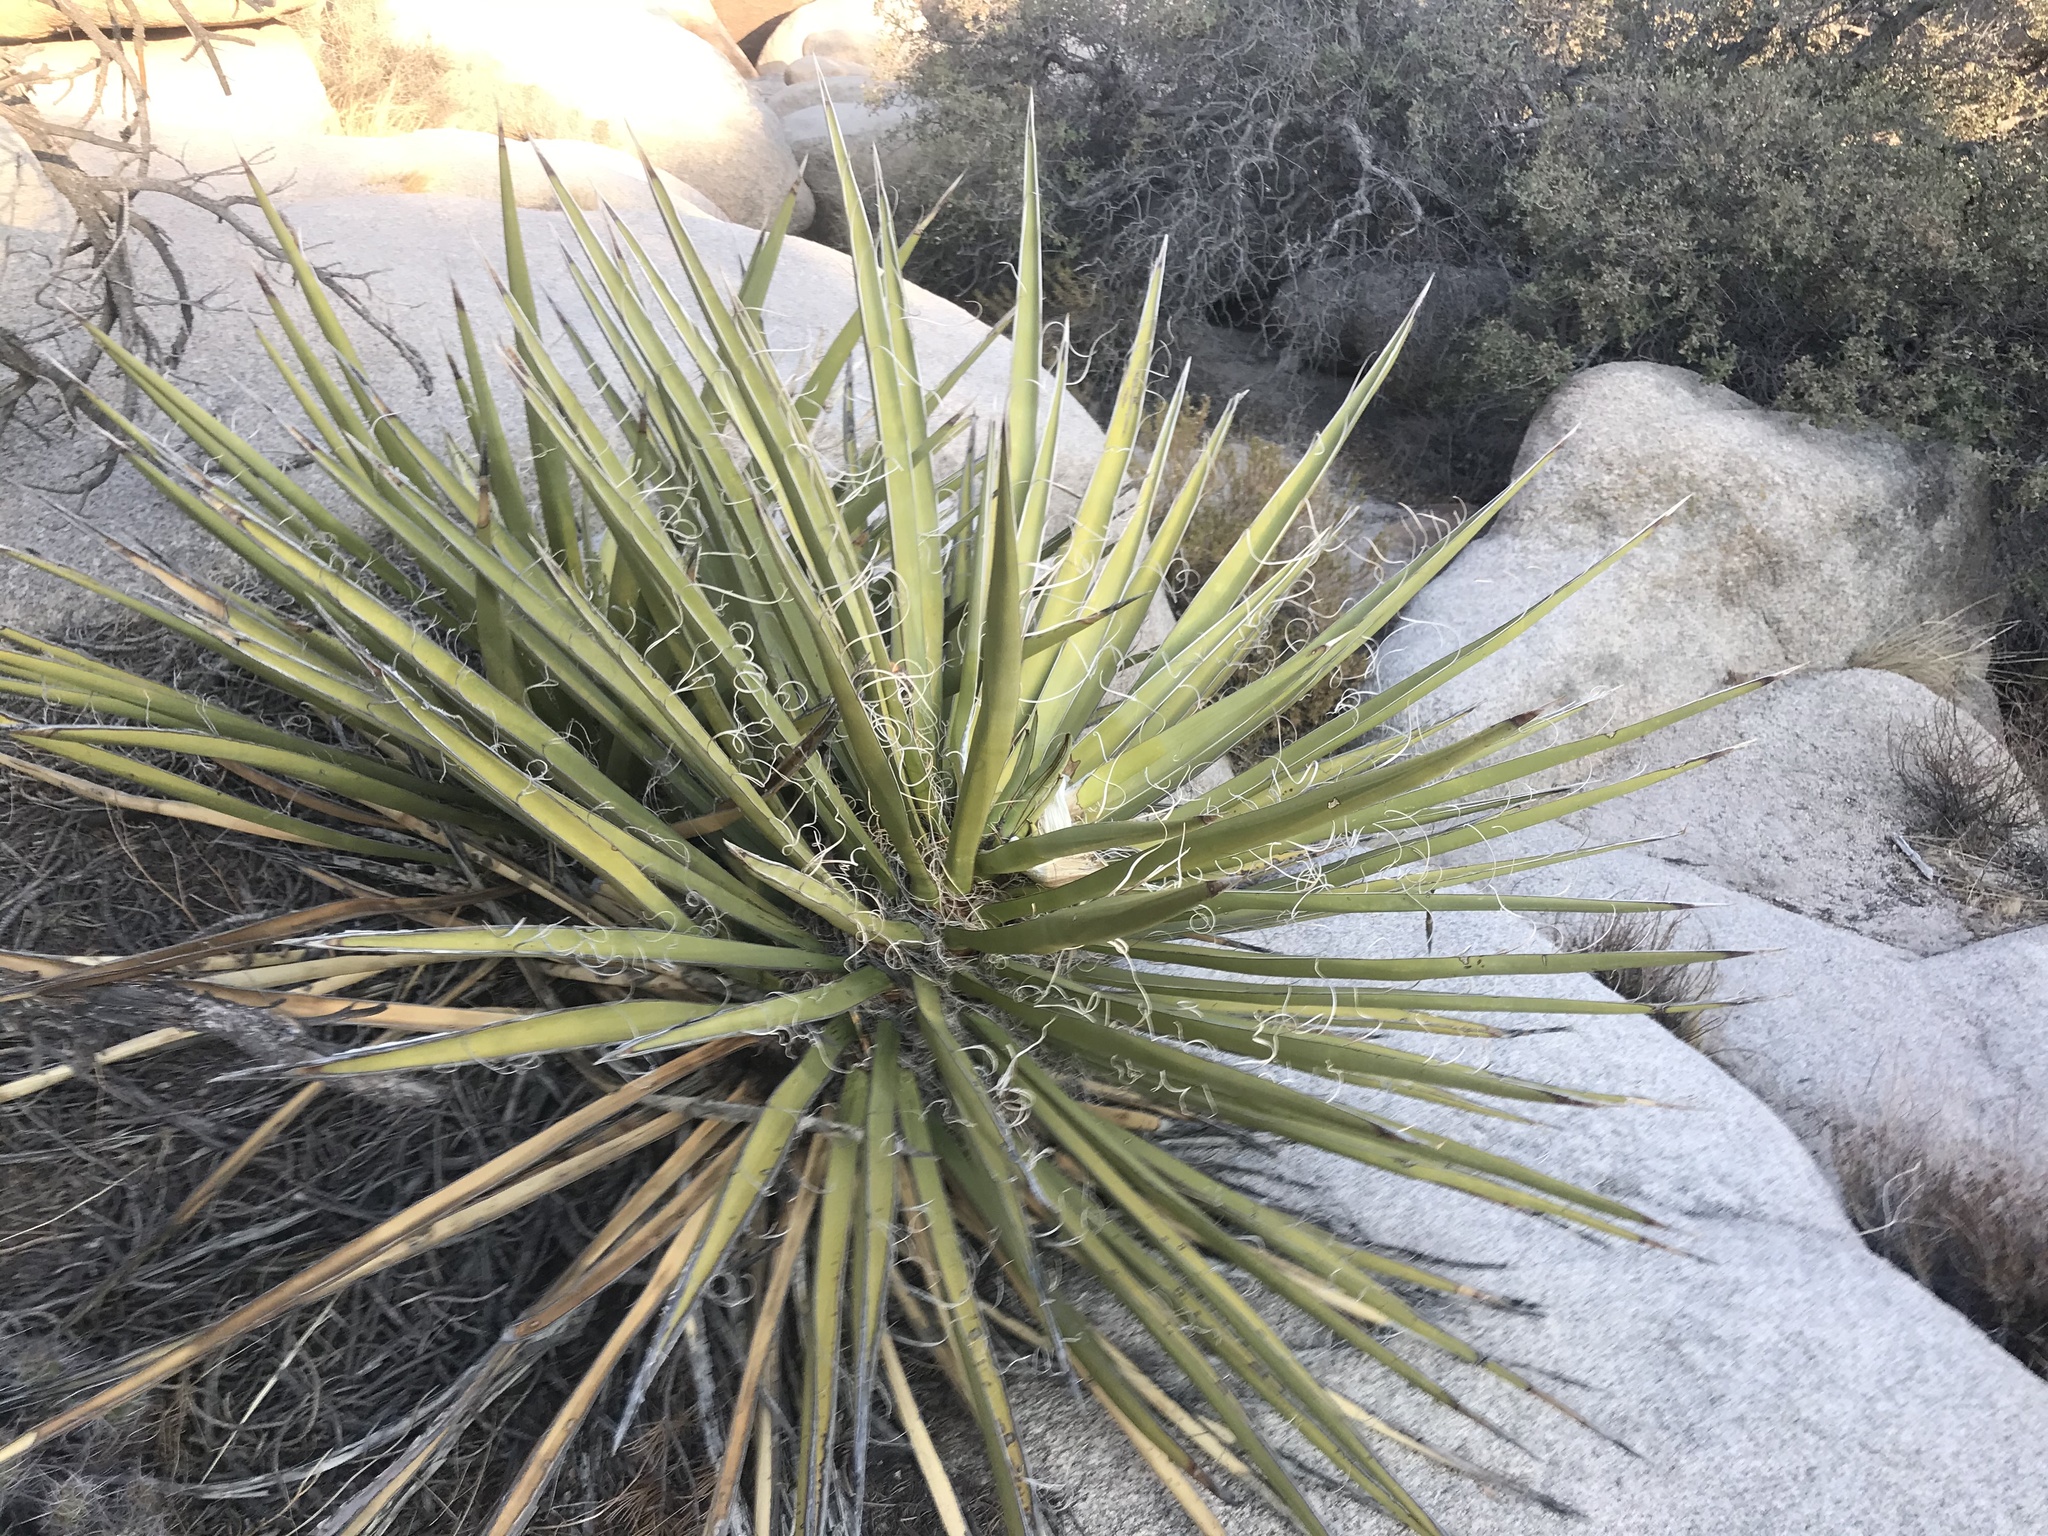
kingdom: Plantae
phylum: Tracheophyta
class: Liliopsida
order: Asparagales
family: Asparagaceae
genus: Yucca
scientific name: Yucca schidigera
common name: Mojave yucca
